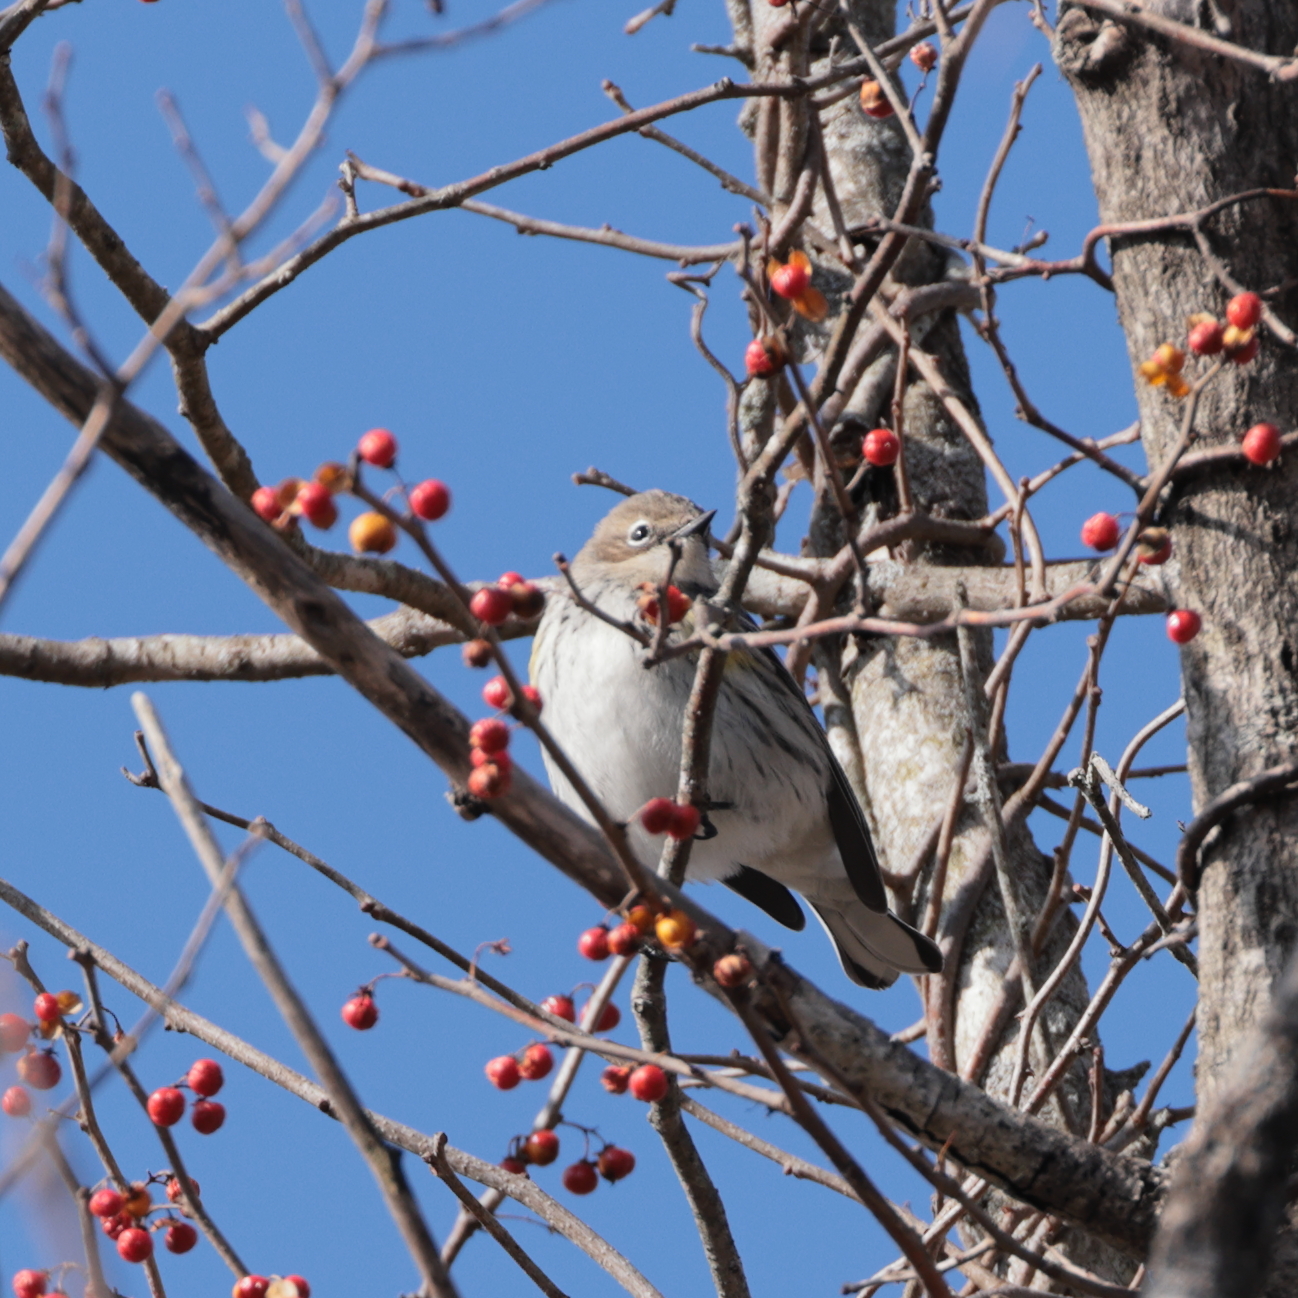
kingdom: Animalia
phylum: Chordata
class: Aves
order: Passeriformes
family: Parulidae
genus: Setophaga
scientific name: Setophaga coronata
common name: Myrtle warbler
